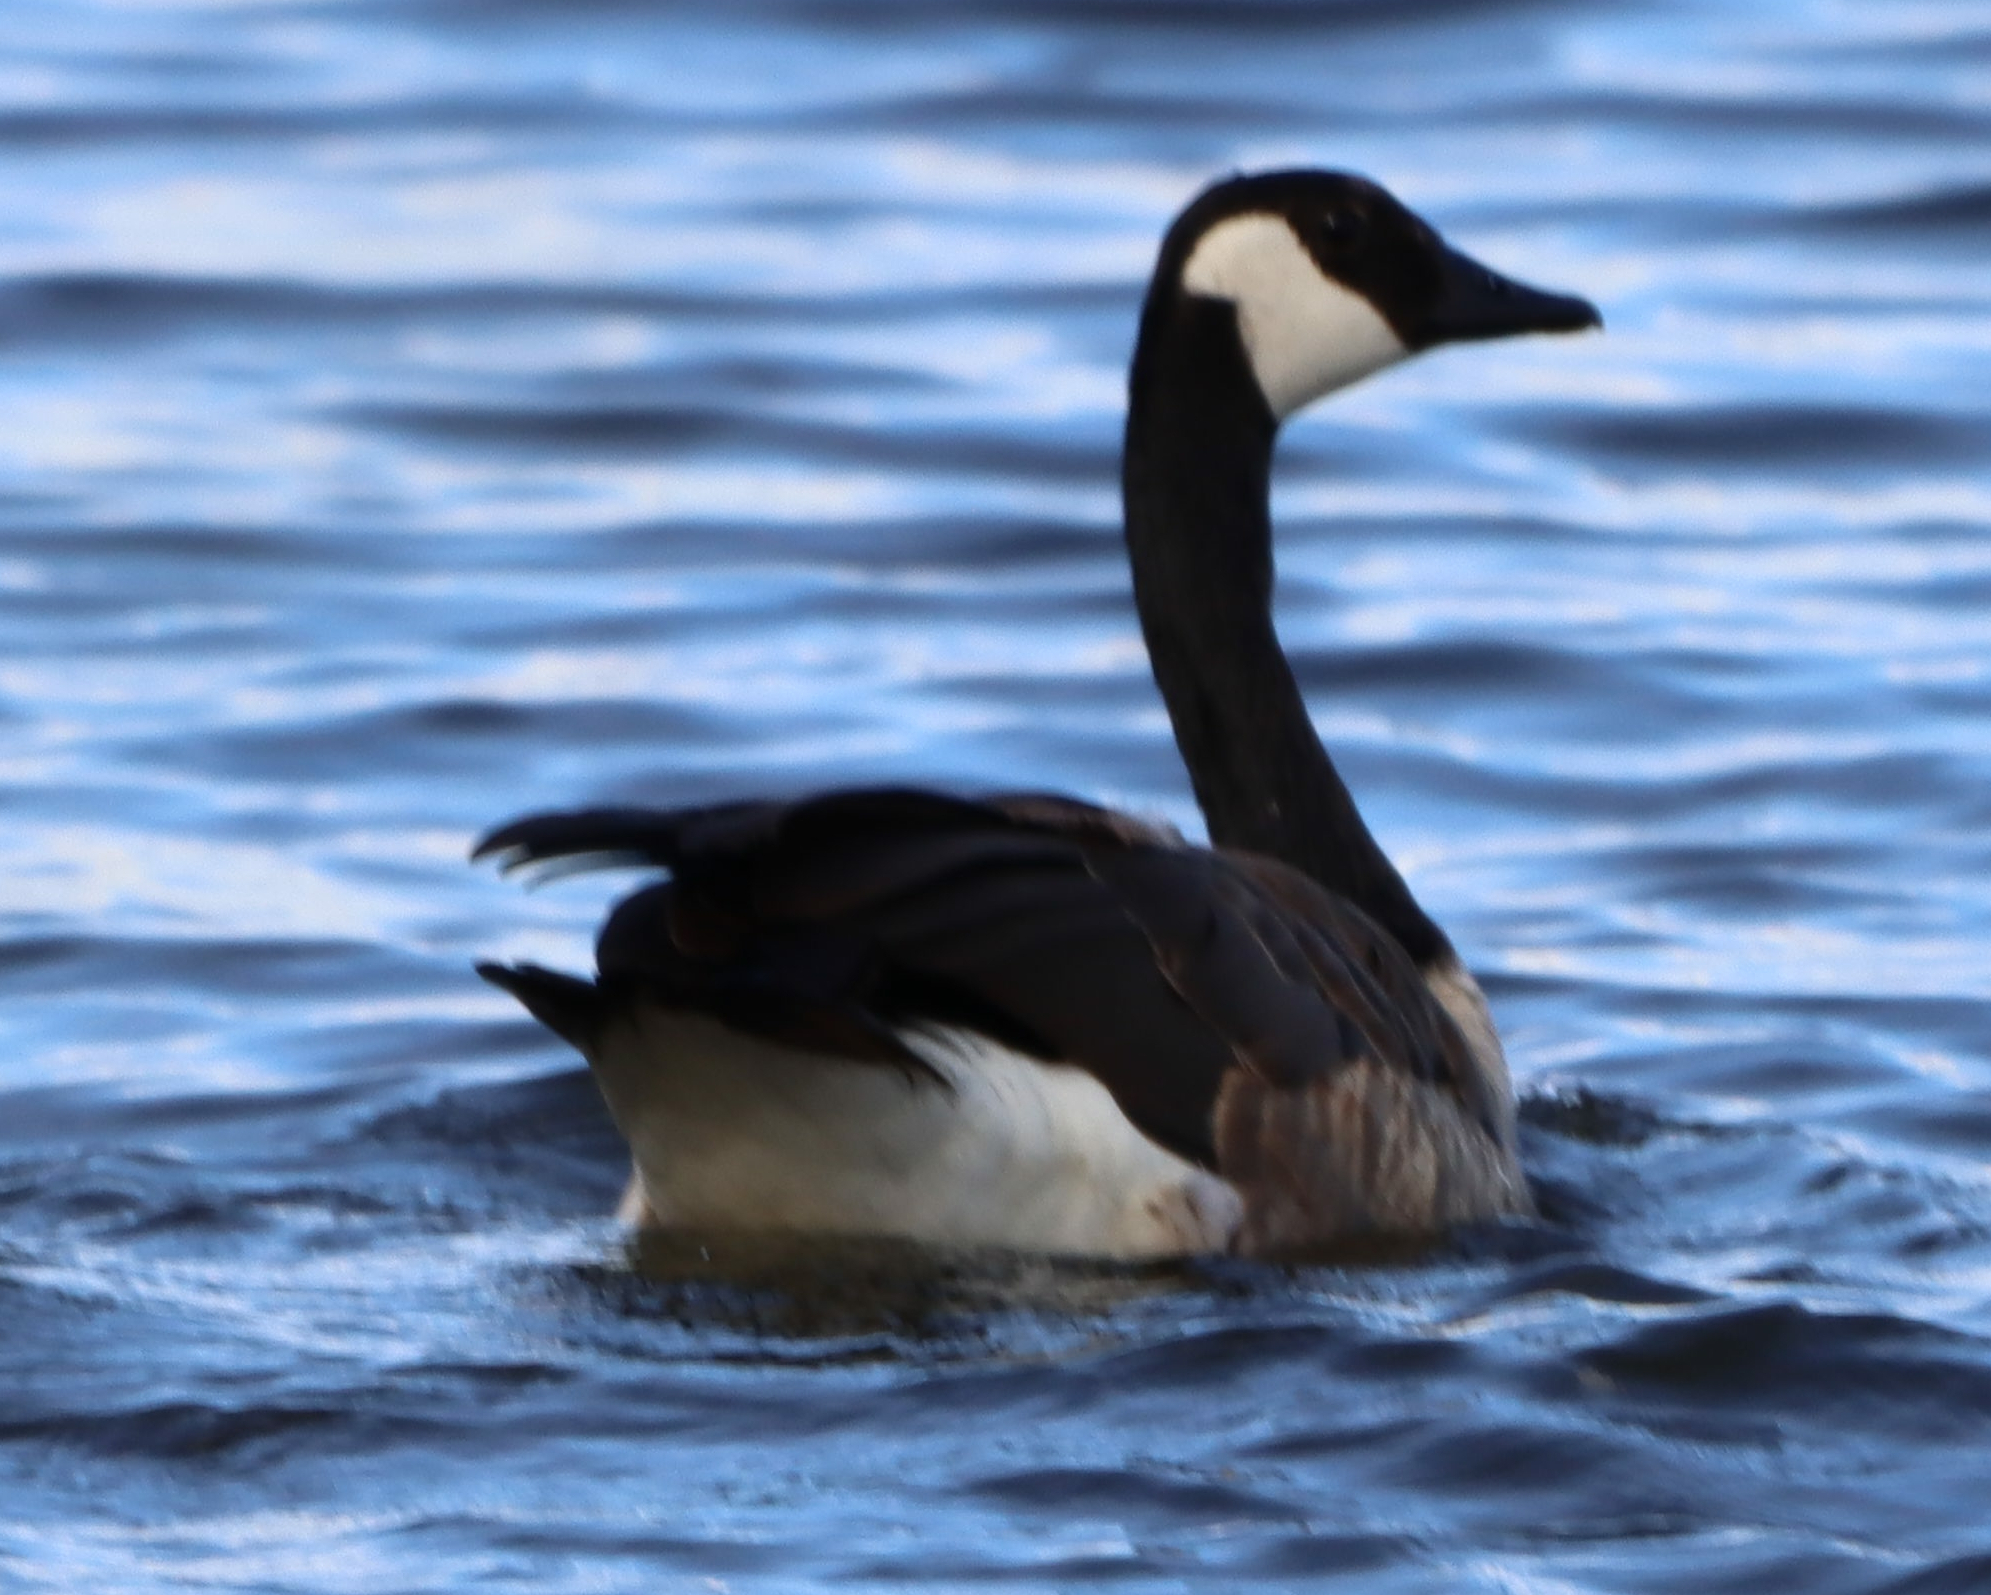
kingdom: Animalia
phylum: Chordata
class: Aves
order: Anseriformes
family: Anatidae
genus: Branta
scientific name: Branta canadensis
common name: Canada goose
